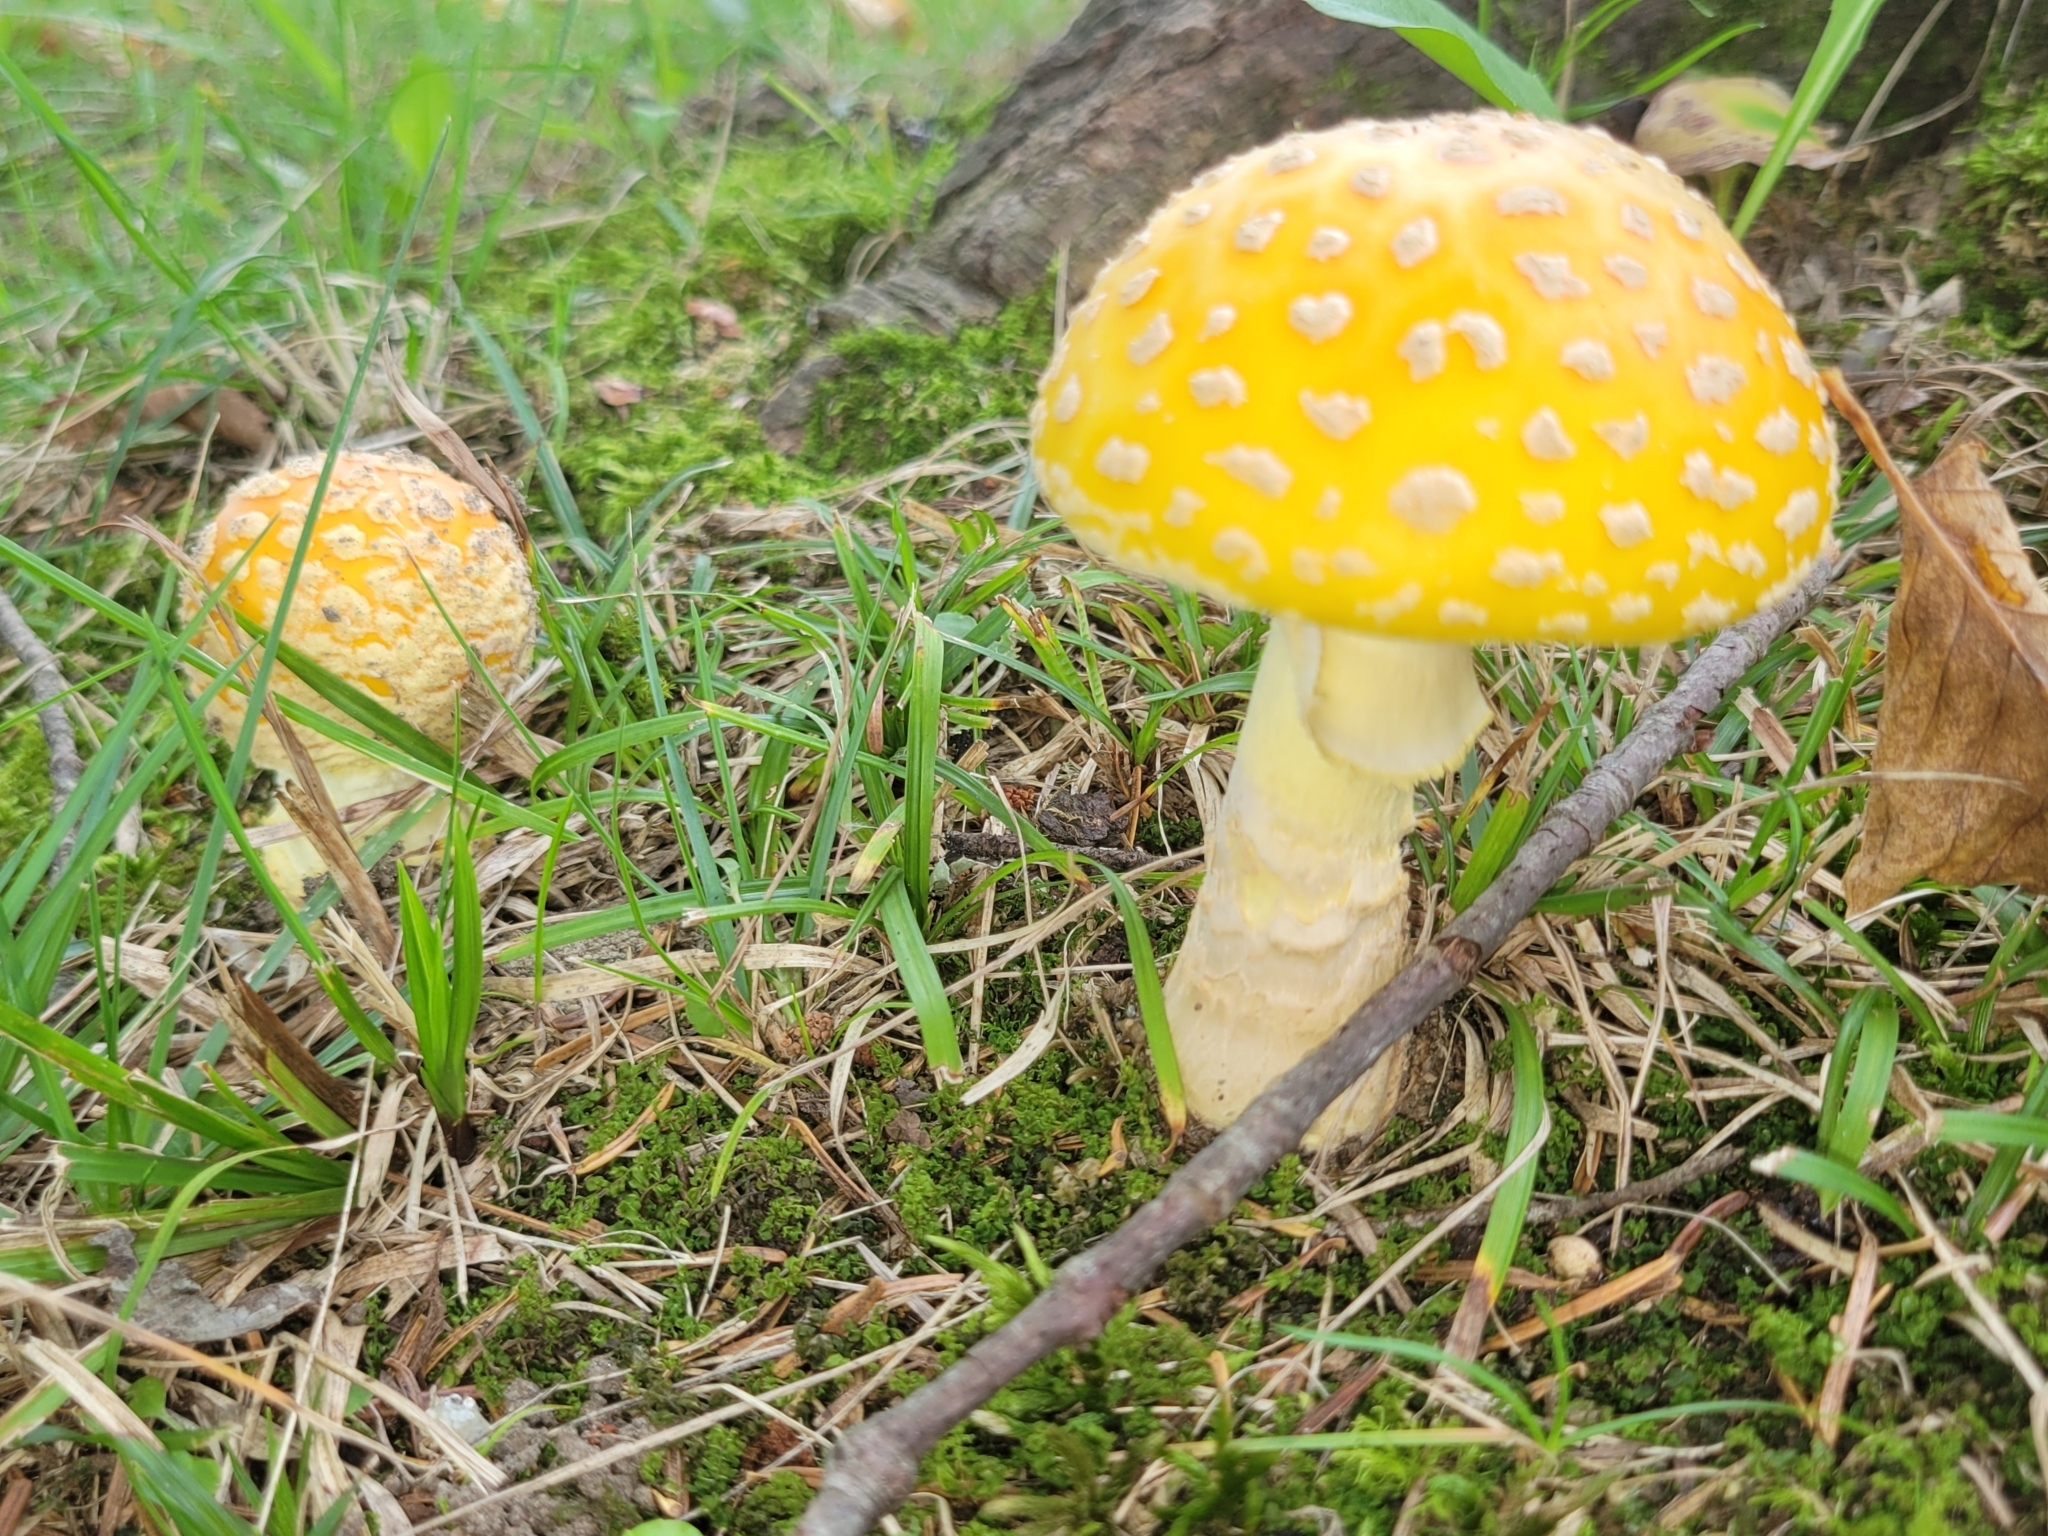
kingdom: Fungi
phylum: Basidiomycota
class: Agaricomycetes
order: Agaricales
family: Amanitaceae
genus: Amanita
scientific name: Amanita muscaria
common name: Fly agaric
